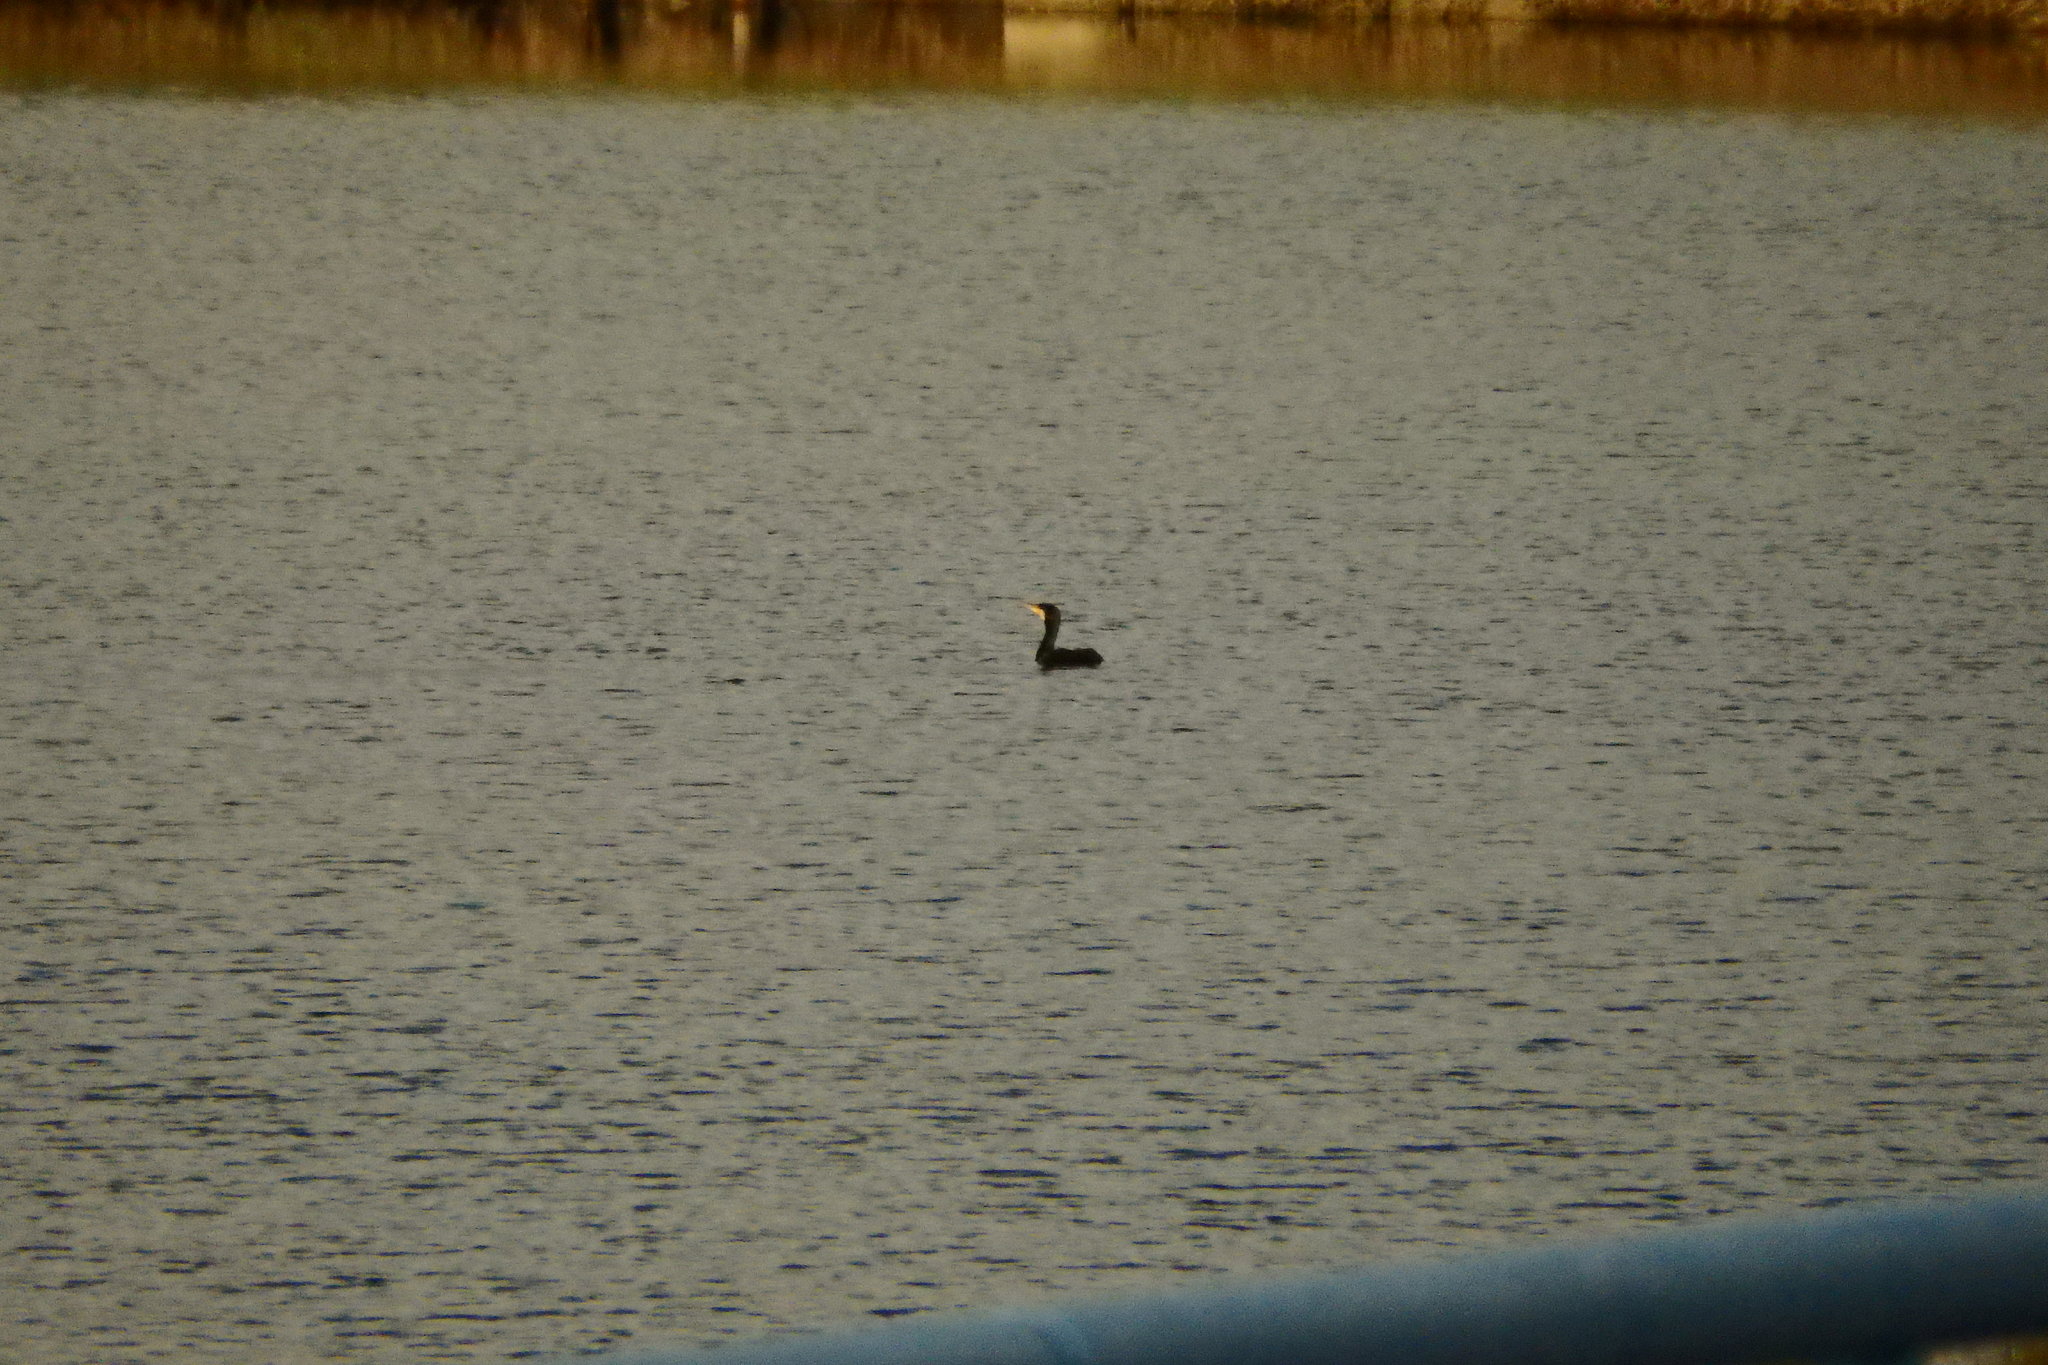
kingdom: Animalia
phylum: Chordata
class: Aves
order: Suliformes
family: Phalacrocoracidae
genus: Phalacrocorax
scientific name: Phalacrocorax carbo
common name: Great cormorant
